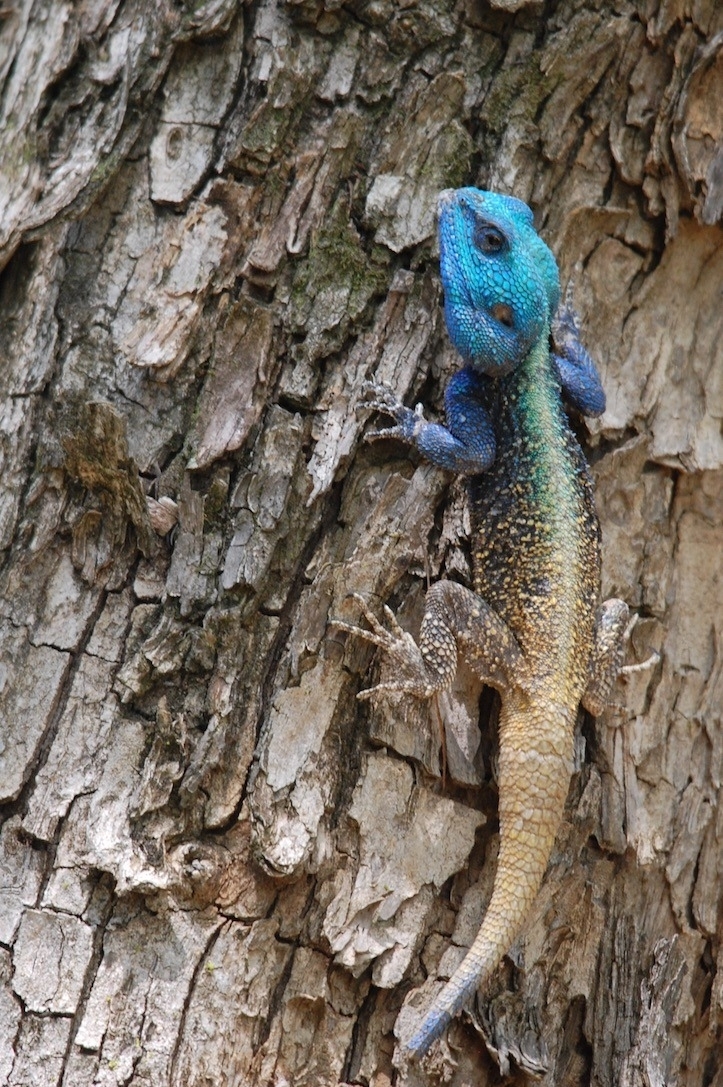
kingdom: Animalia
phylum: Chordata
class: Squamata
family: Agamidae
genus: Acanthocercus
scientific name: Acanthocercus atricollis
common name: Southern tree agama
